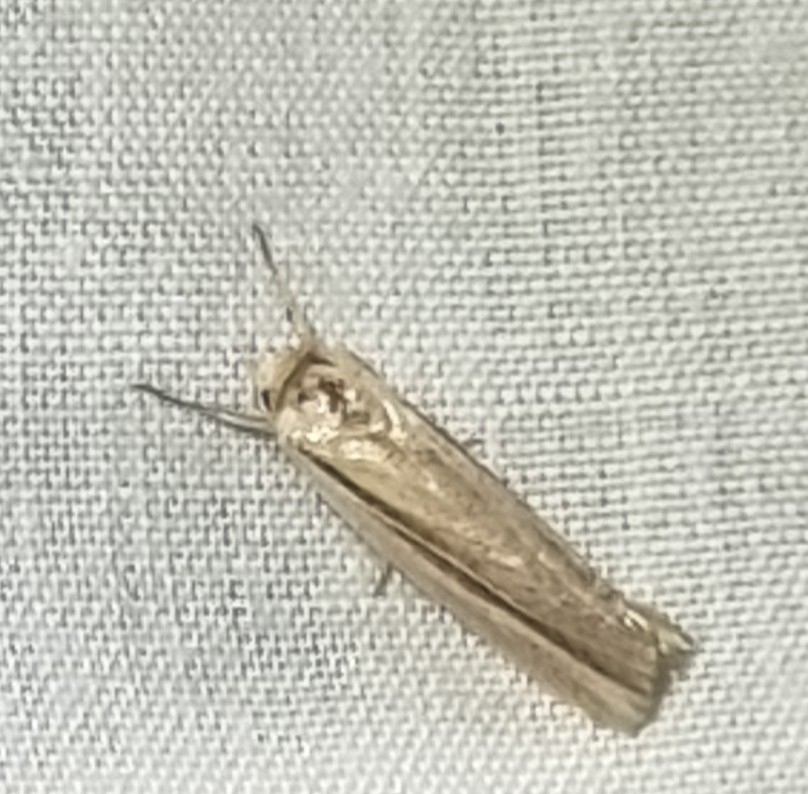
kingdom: Animalia
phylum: Arthropoda
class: Insecta
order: Lepidoptera
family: Noctuidae
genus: Eurypsyche
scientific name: Eurypsyche lewinii
